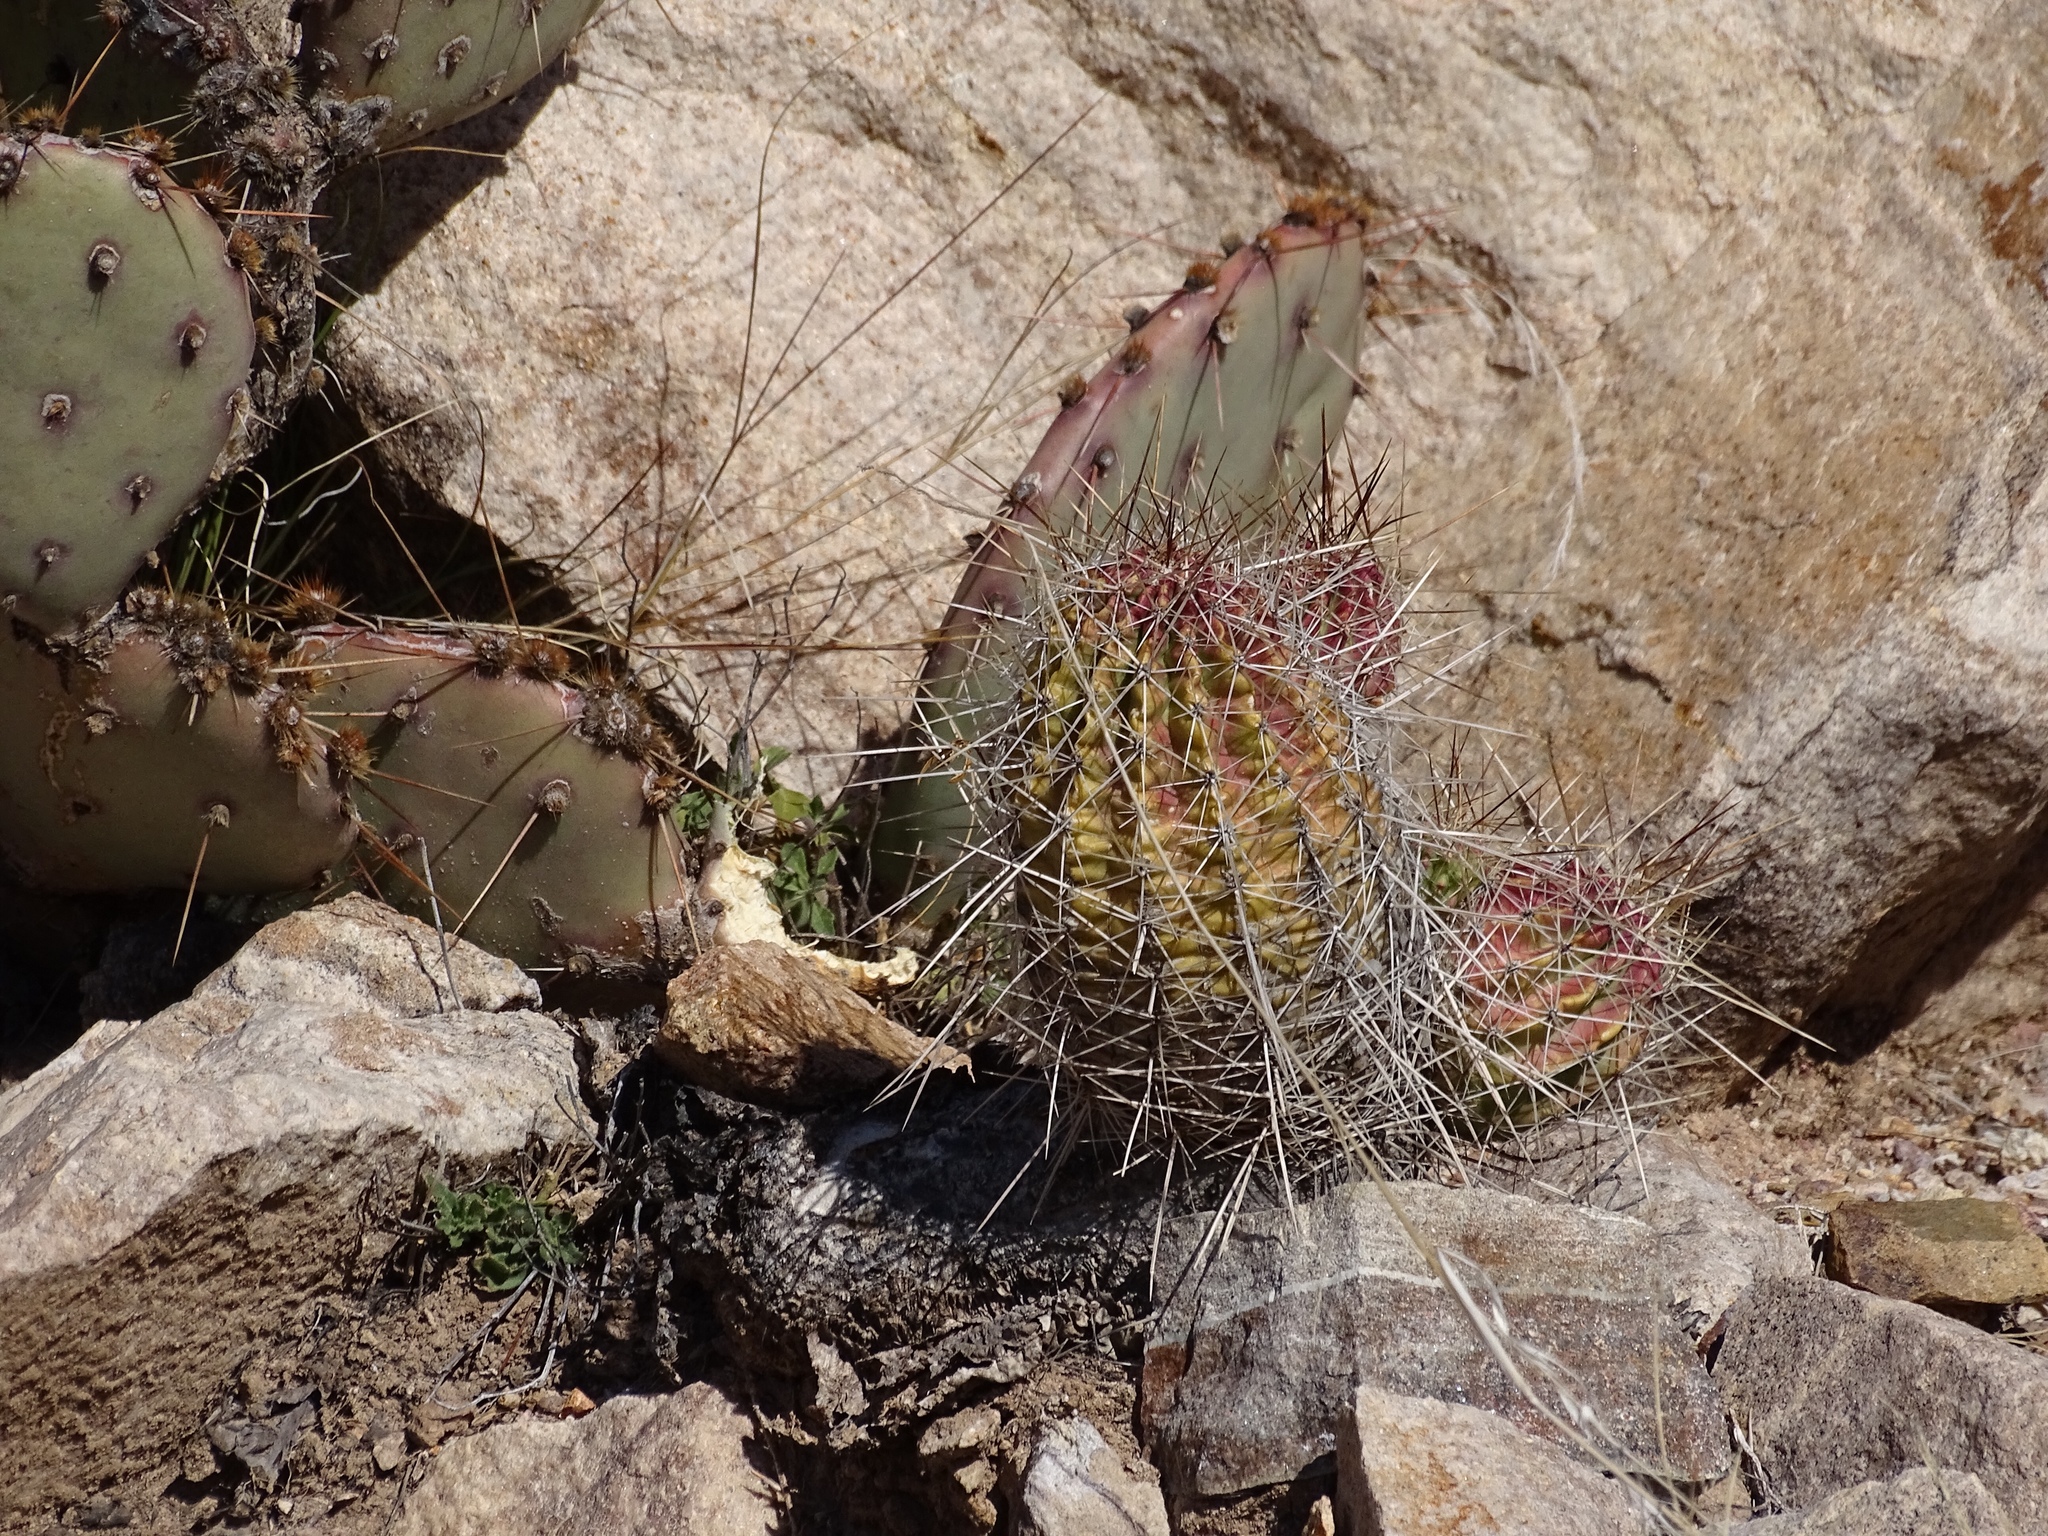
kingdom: Plantae
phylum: Tracheophyta
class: Magnoliopsida
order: Caryophyllales
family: Cactaceae
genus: Echinocereus
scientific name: Echinocereus stramineus
